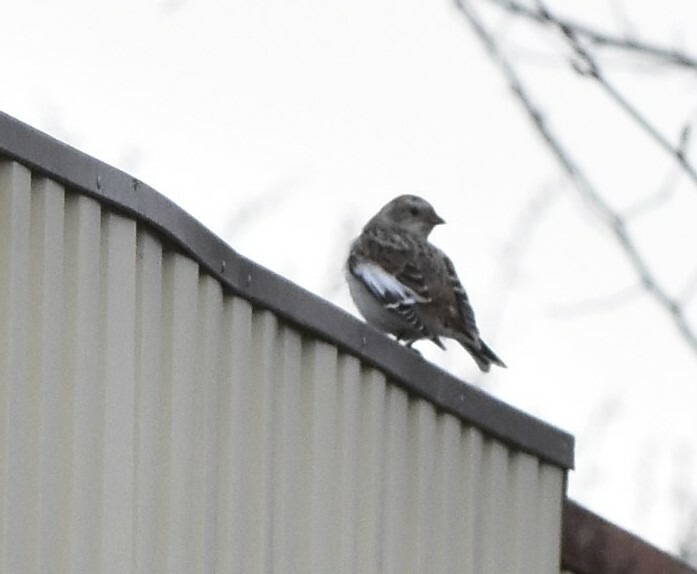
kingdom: Animalia
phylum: Chordata
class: Aves
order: Passeriformes
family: Calcariidae
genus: Plectrophenax
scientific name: Plectrophenax nivalis
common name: Snow bunting
